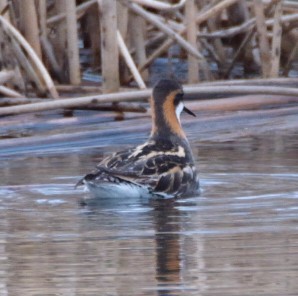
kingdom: Animalia
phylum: Chordata
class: Aves
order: Charadriiformes
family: Scolopacidae
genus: Phalaropus
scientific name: Phalaropus lobatus
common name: Red-necked phalarope
